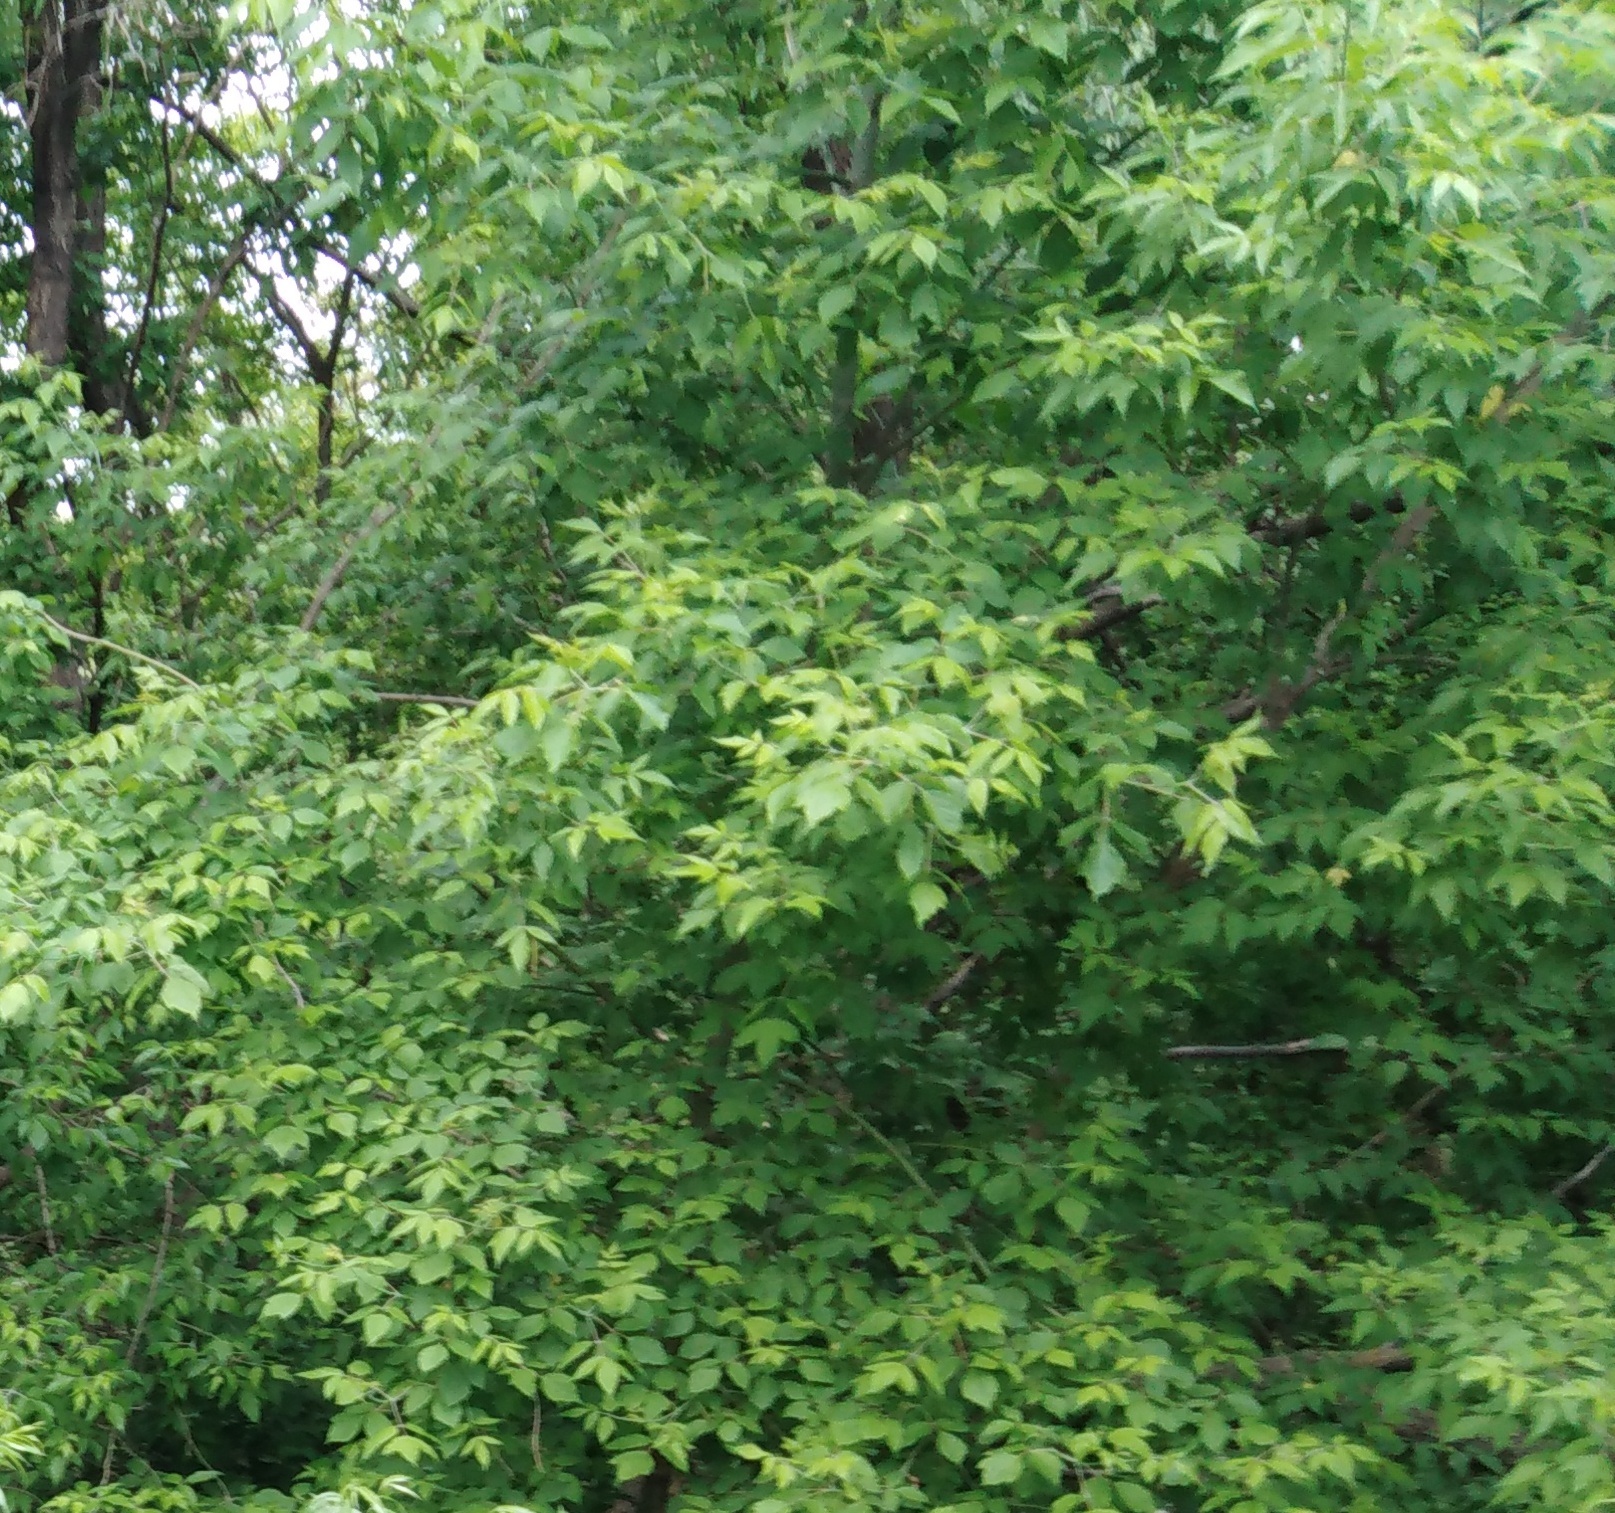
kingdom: Plantae
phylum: Tracheophyta
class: Magnoliopsida
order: Sapindales
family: Sapindaceae
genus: Acer
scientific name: Acer negundo
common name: Ashleaf maple
